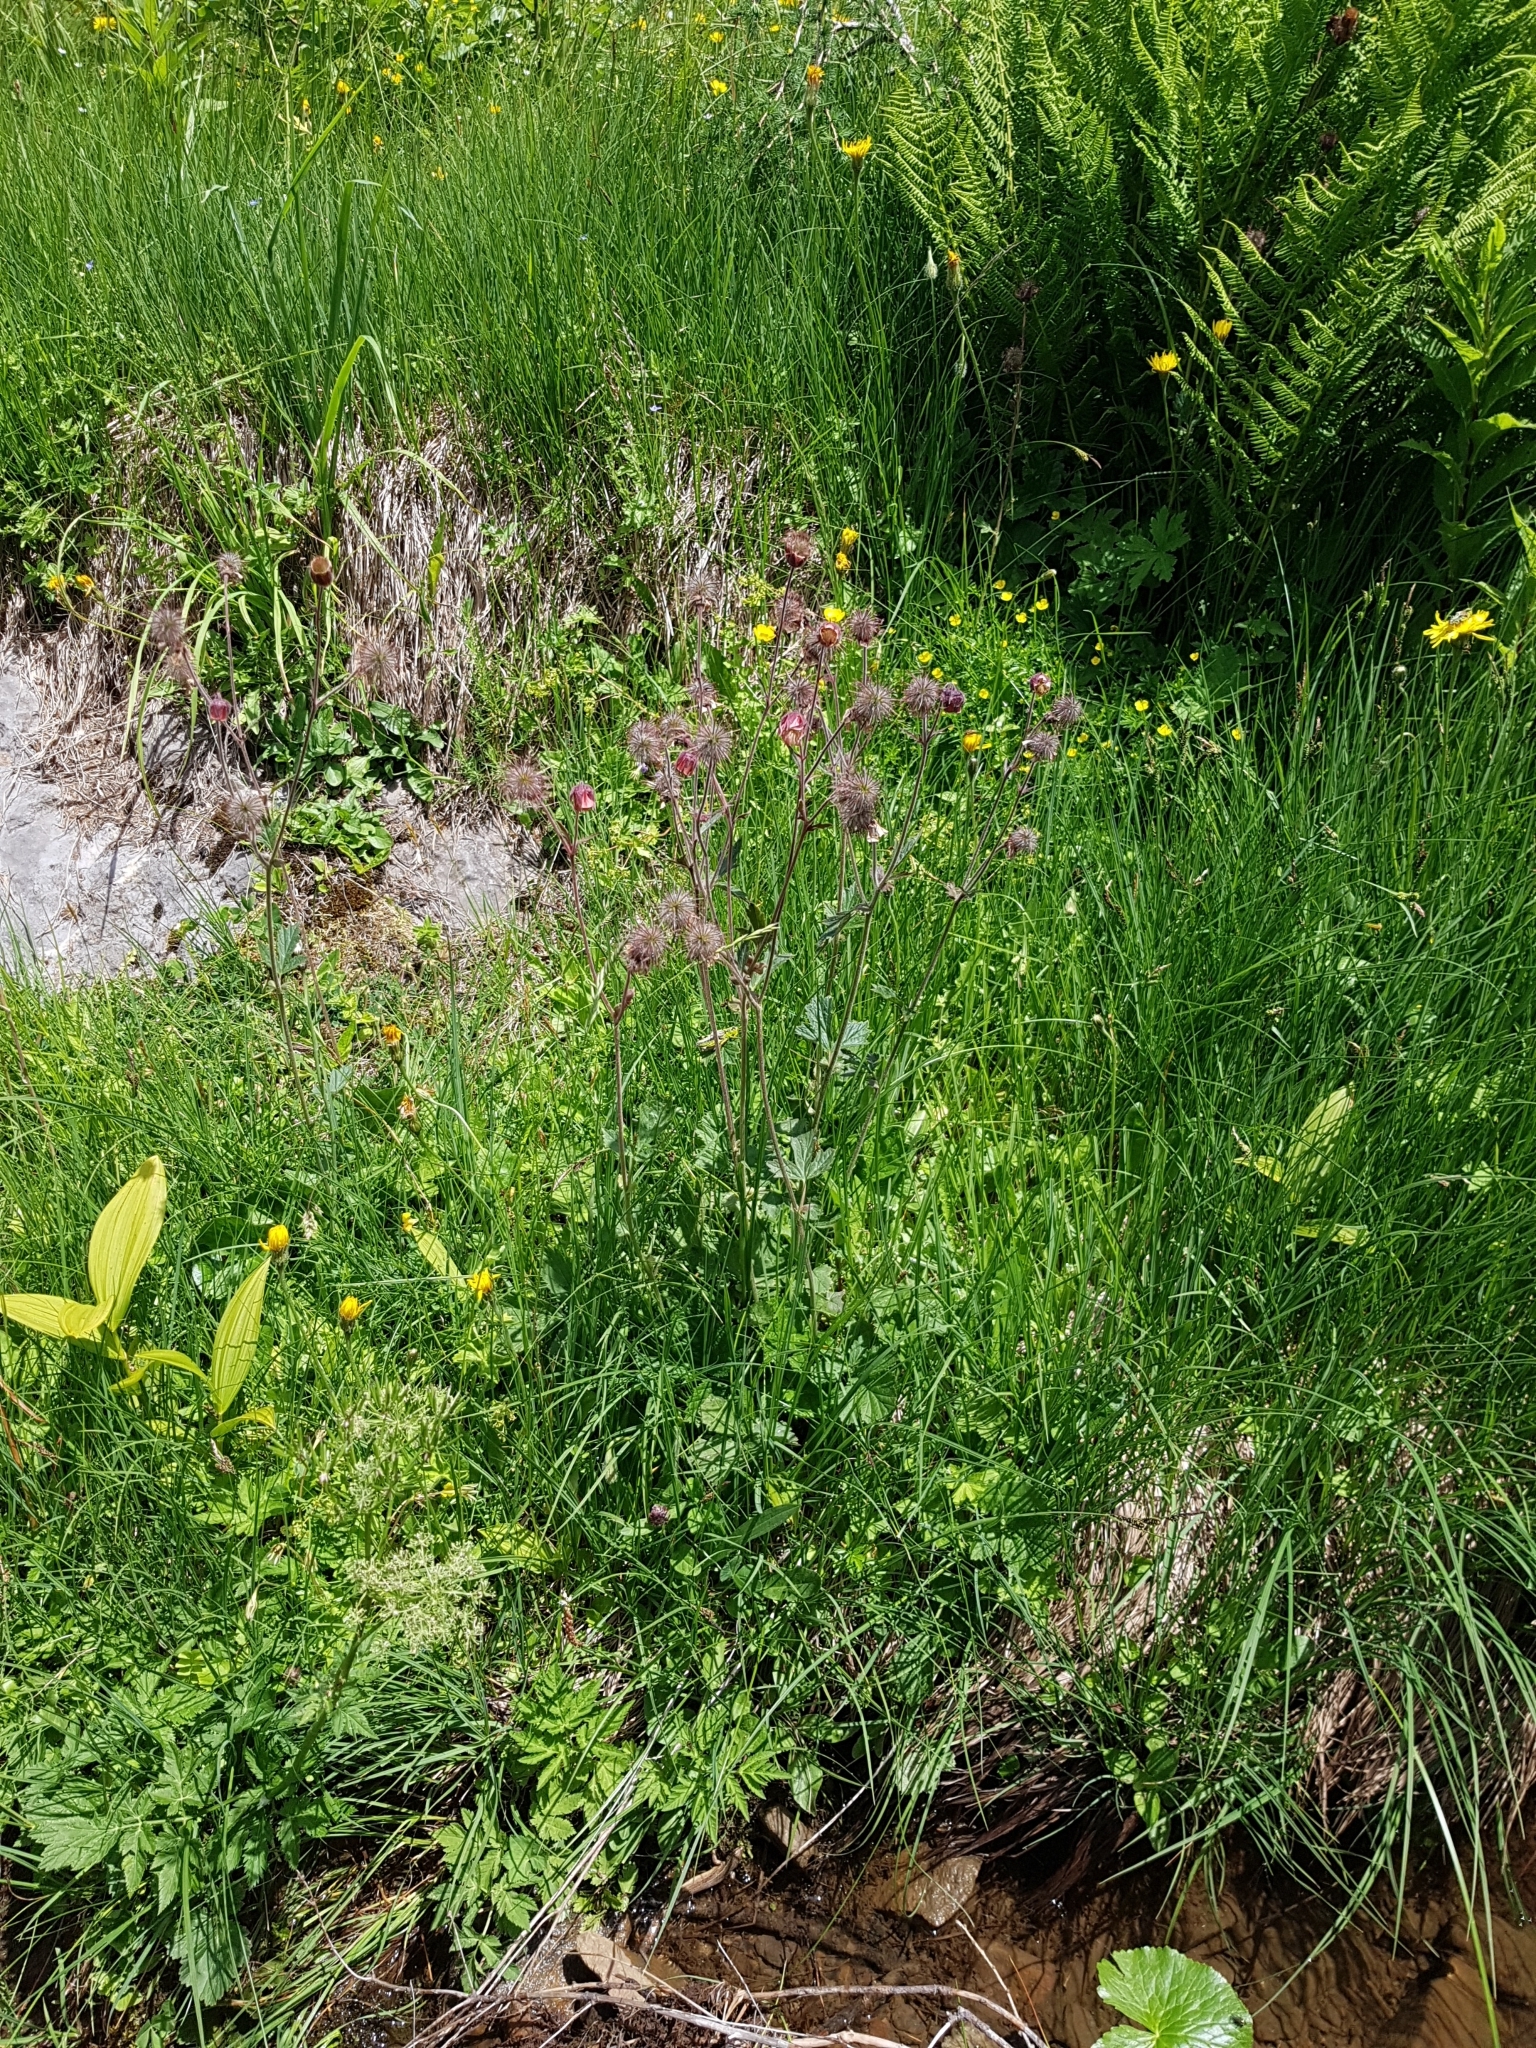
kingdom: Plantae
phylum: Tracheophyta
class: Magnoliopsida
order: Rosales
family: Rosaceae
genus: Geum
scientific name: Geum rivale
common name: Water avens
